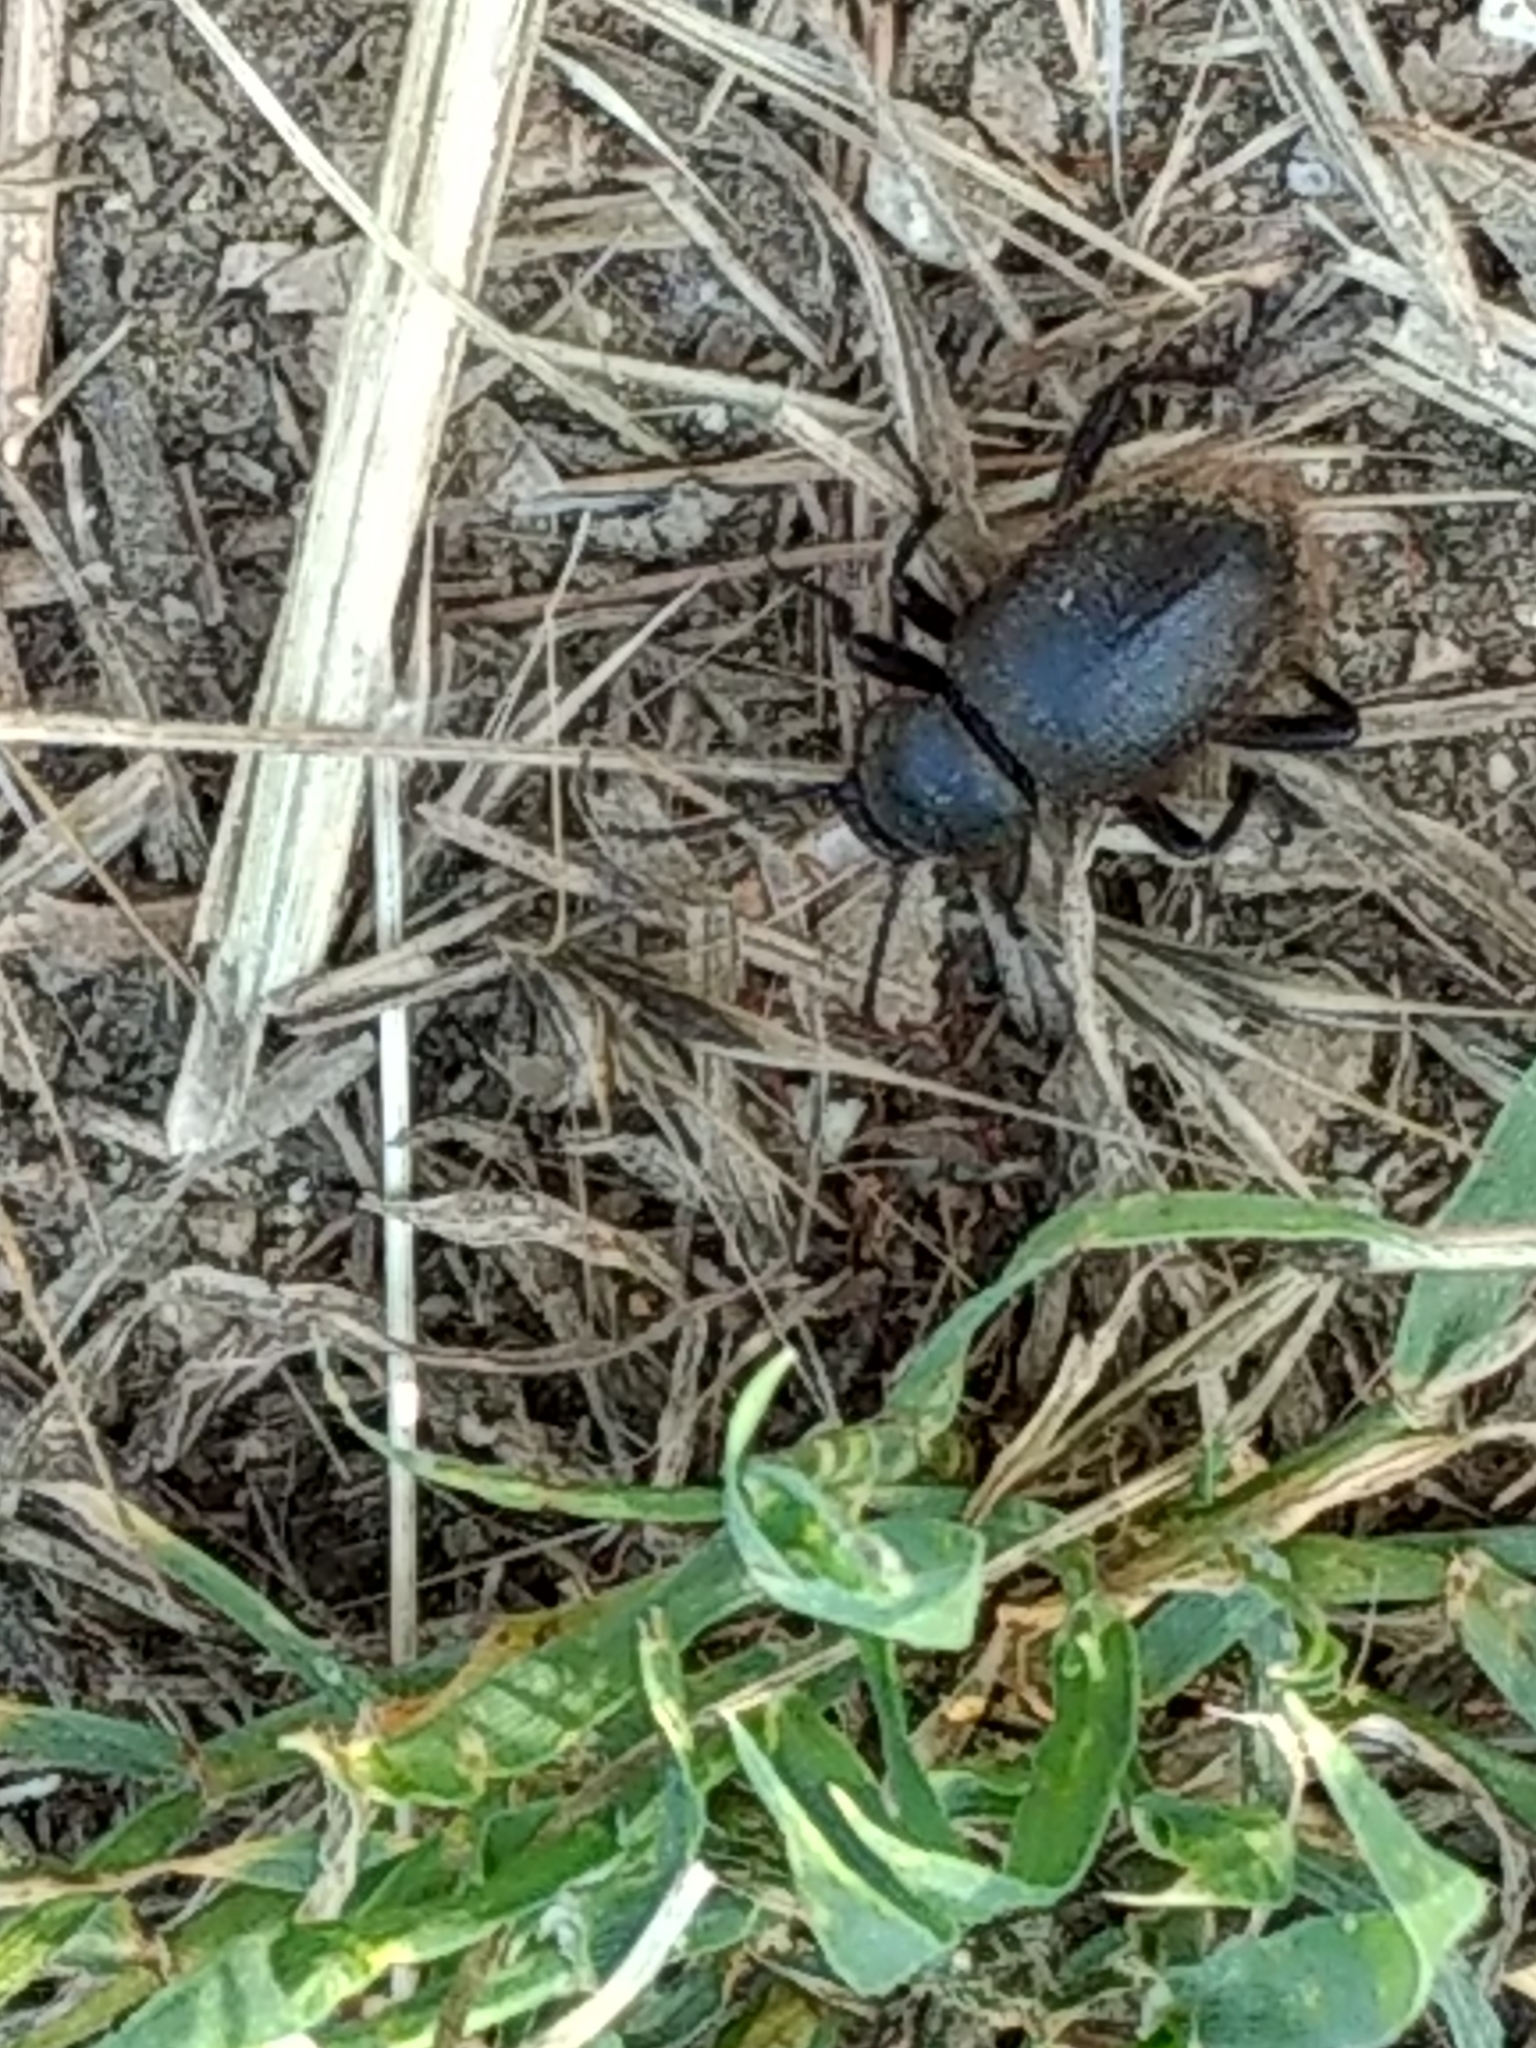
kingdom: Animalia
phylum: Arthropoda
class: Insecta
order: Coleoptera
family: Tenebrionidae
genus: Eleodes
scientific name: Eleodes osculans
